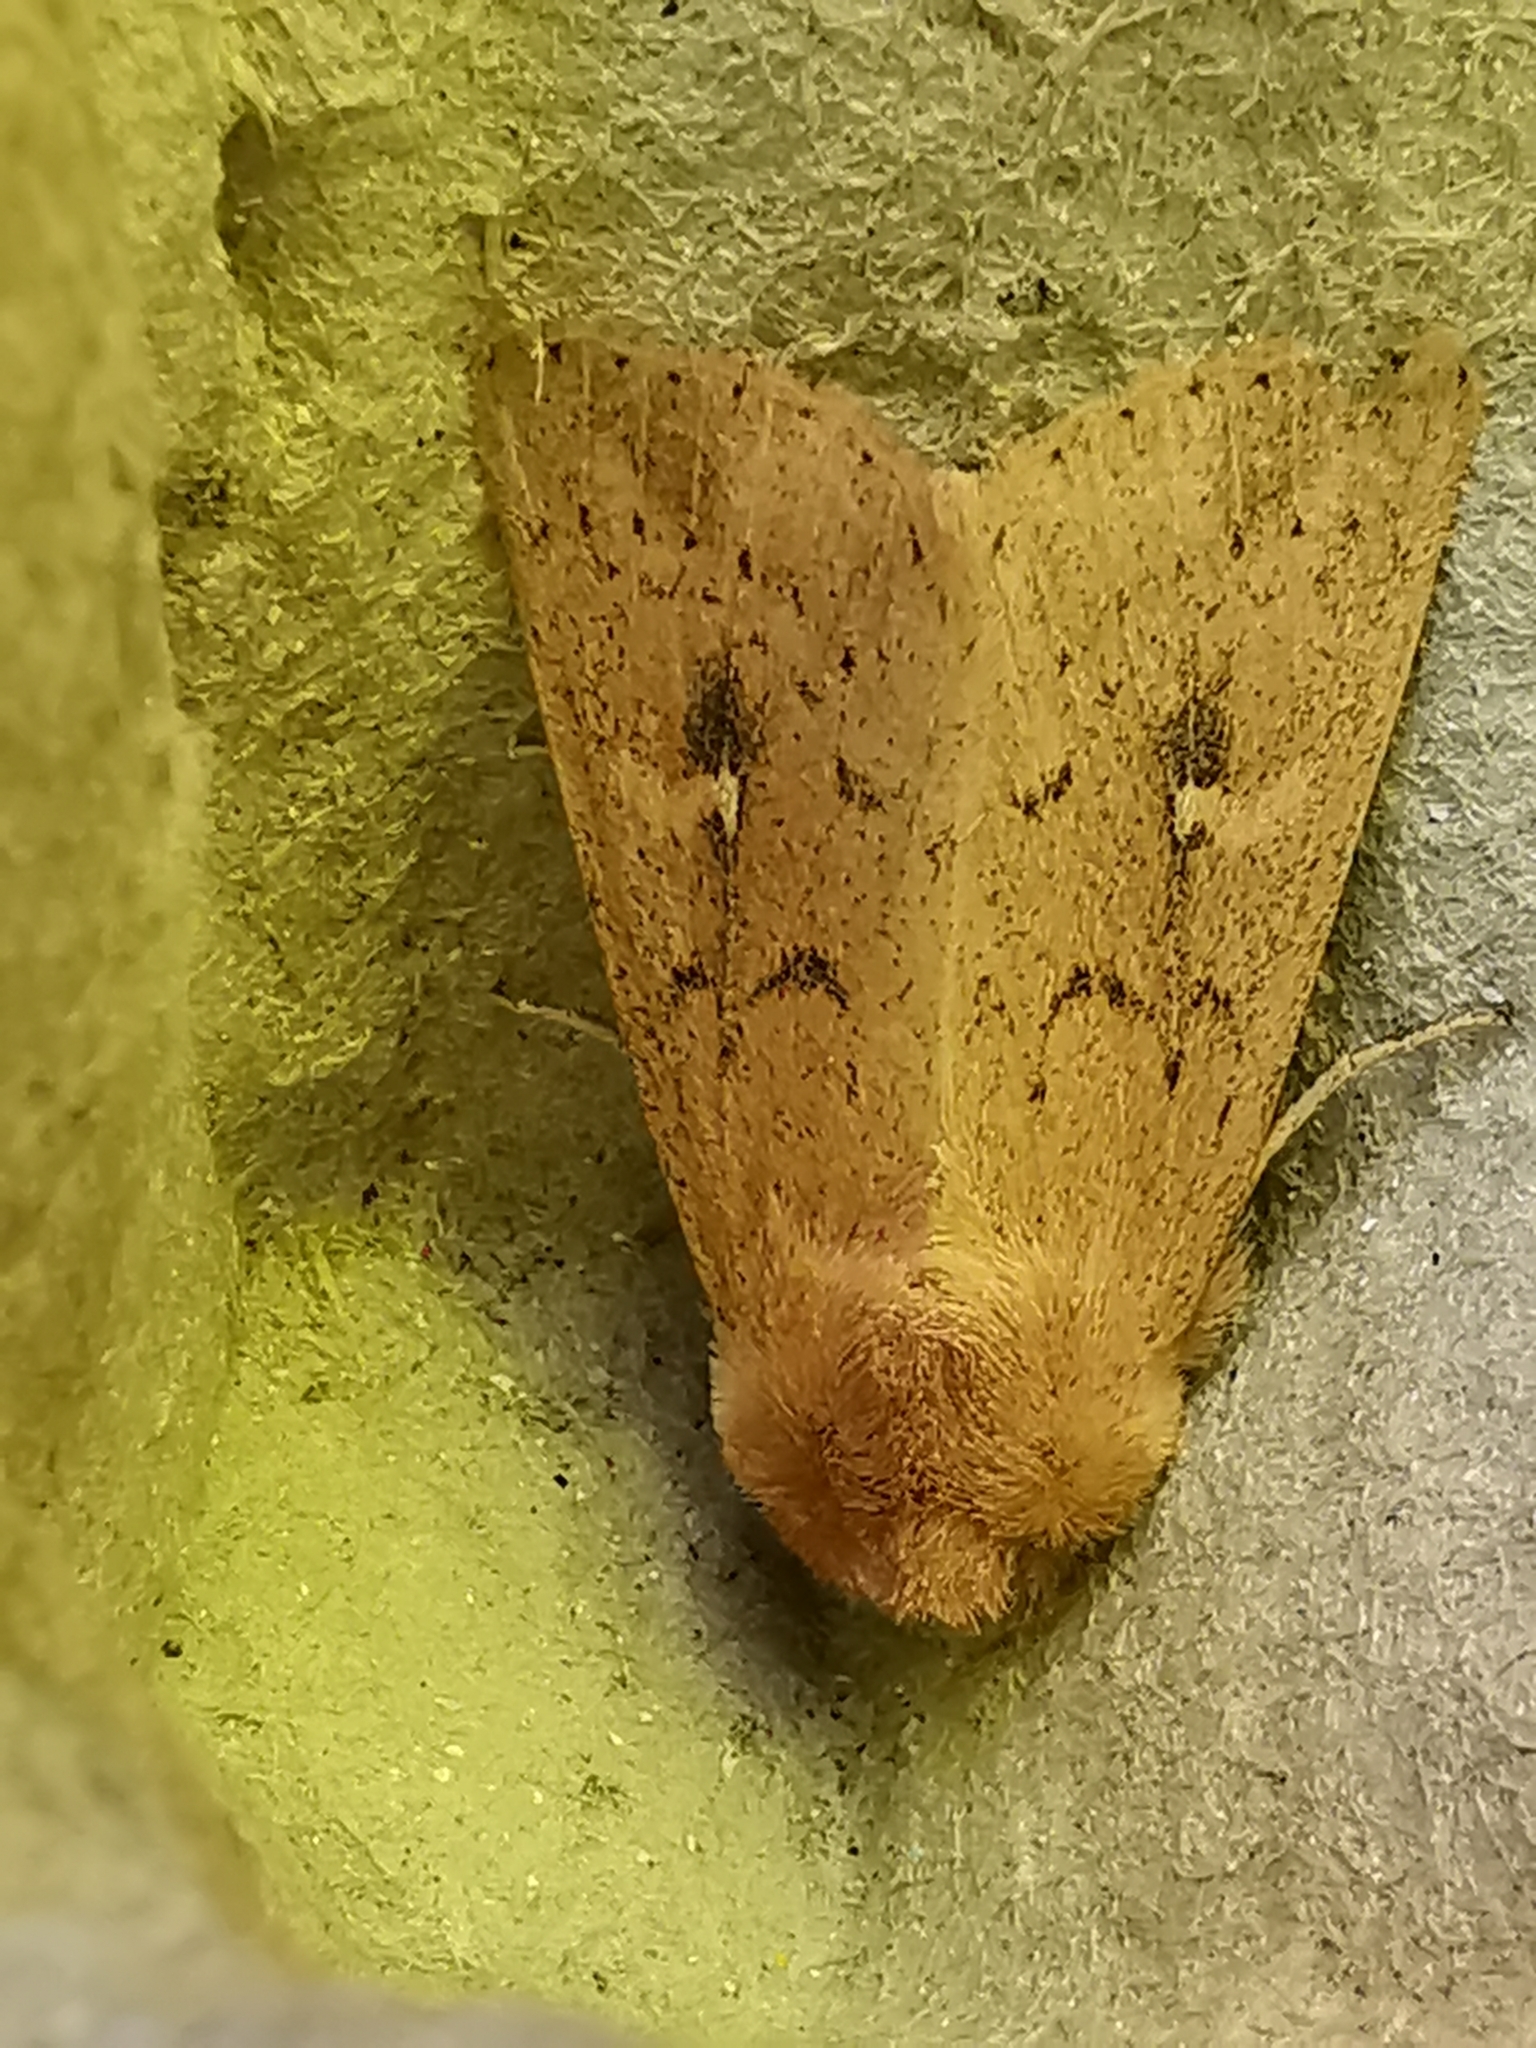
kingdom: Animalia
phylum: Arthropoda
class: Insecta
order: Lepidoptera
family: Noctuidae
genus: Mythimna
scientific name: Mythimna ferrago
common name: Clay
